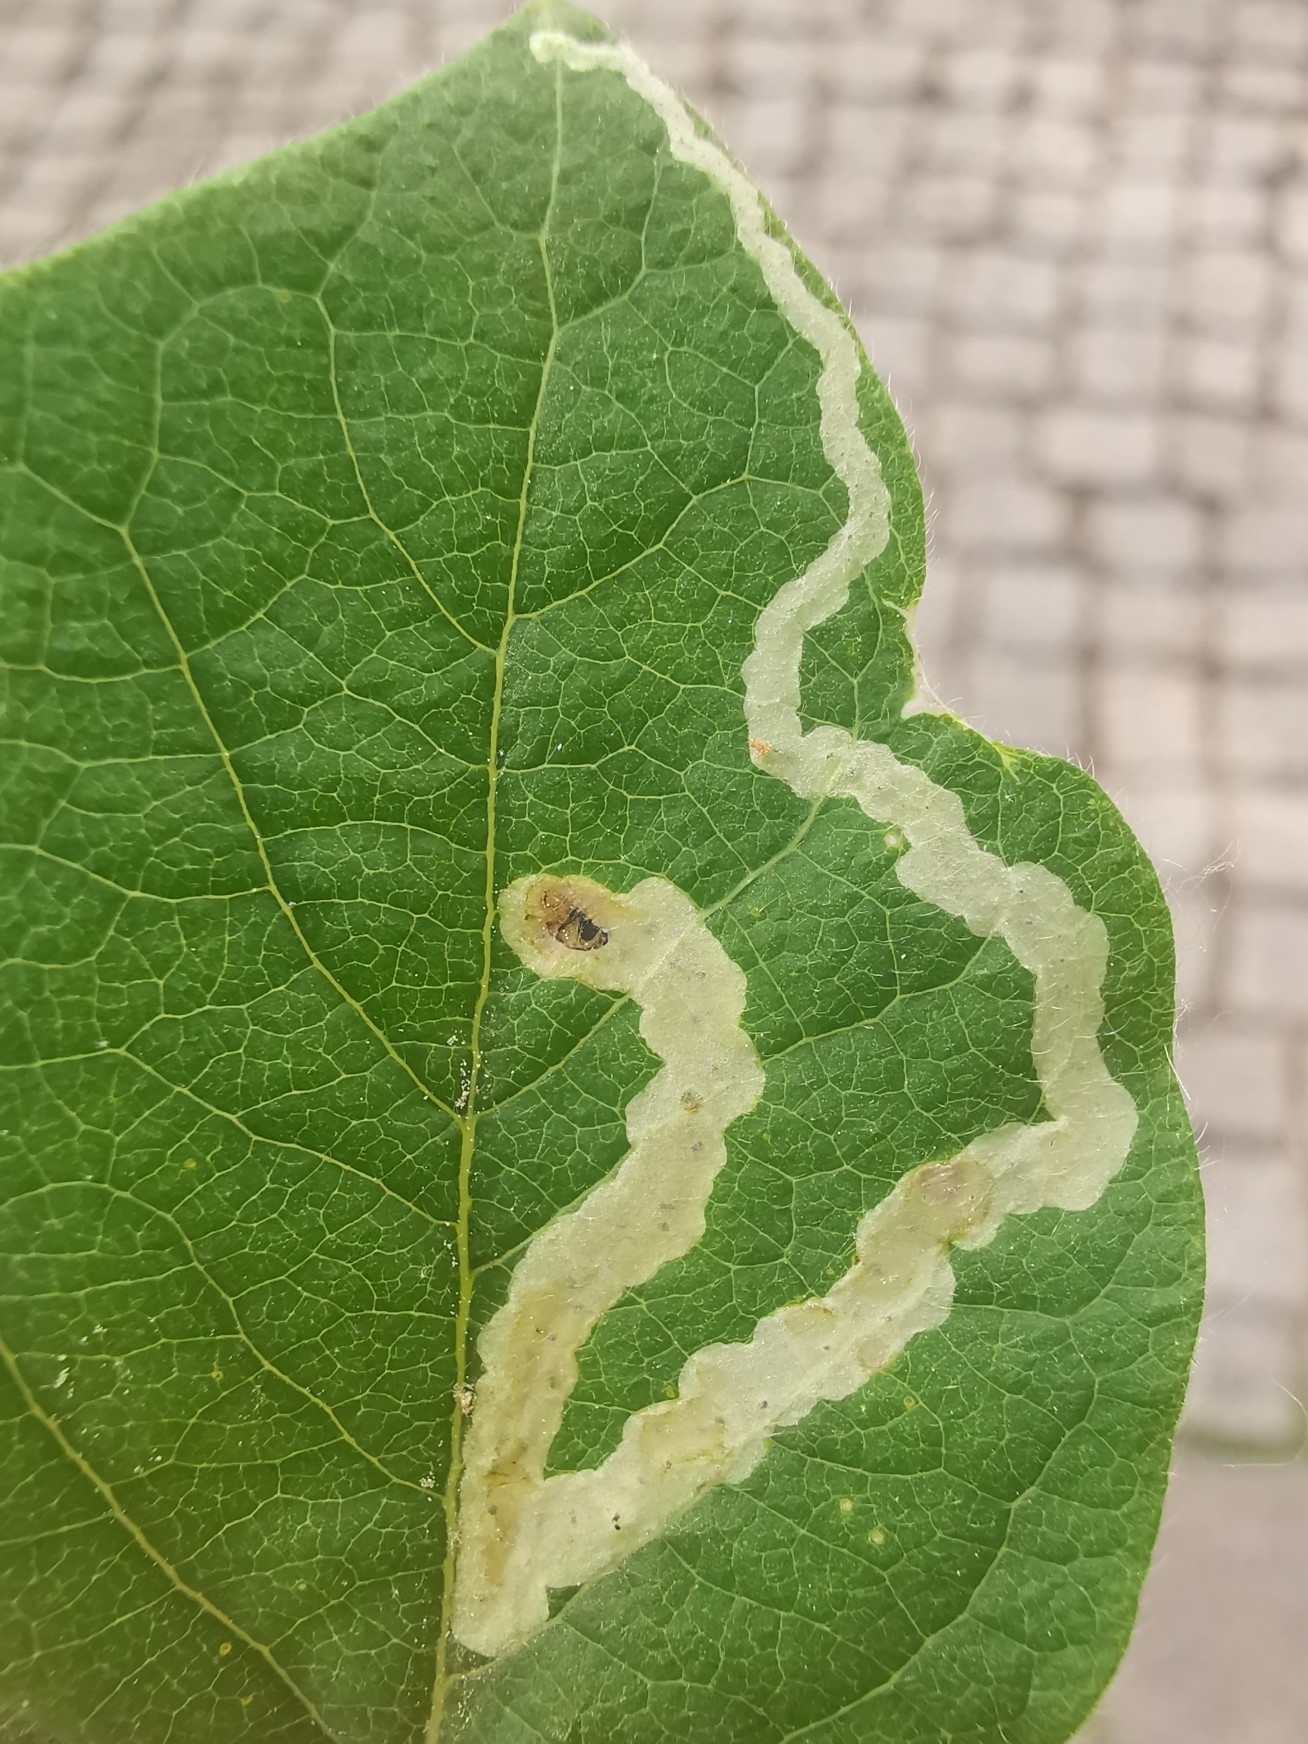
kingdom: Animalia
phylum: Arthropoda
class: Insecta
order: Diptera
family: Agromyzidae
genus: Aulagromyza
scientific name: Aulagromyza cornigera
